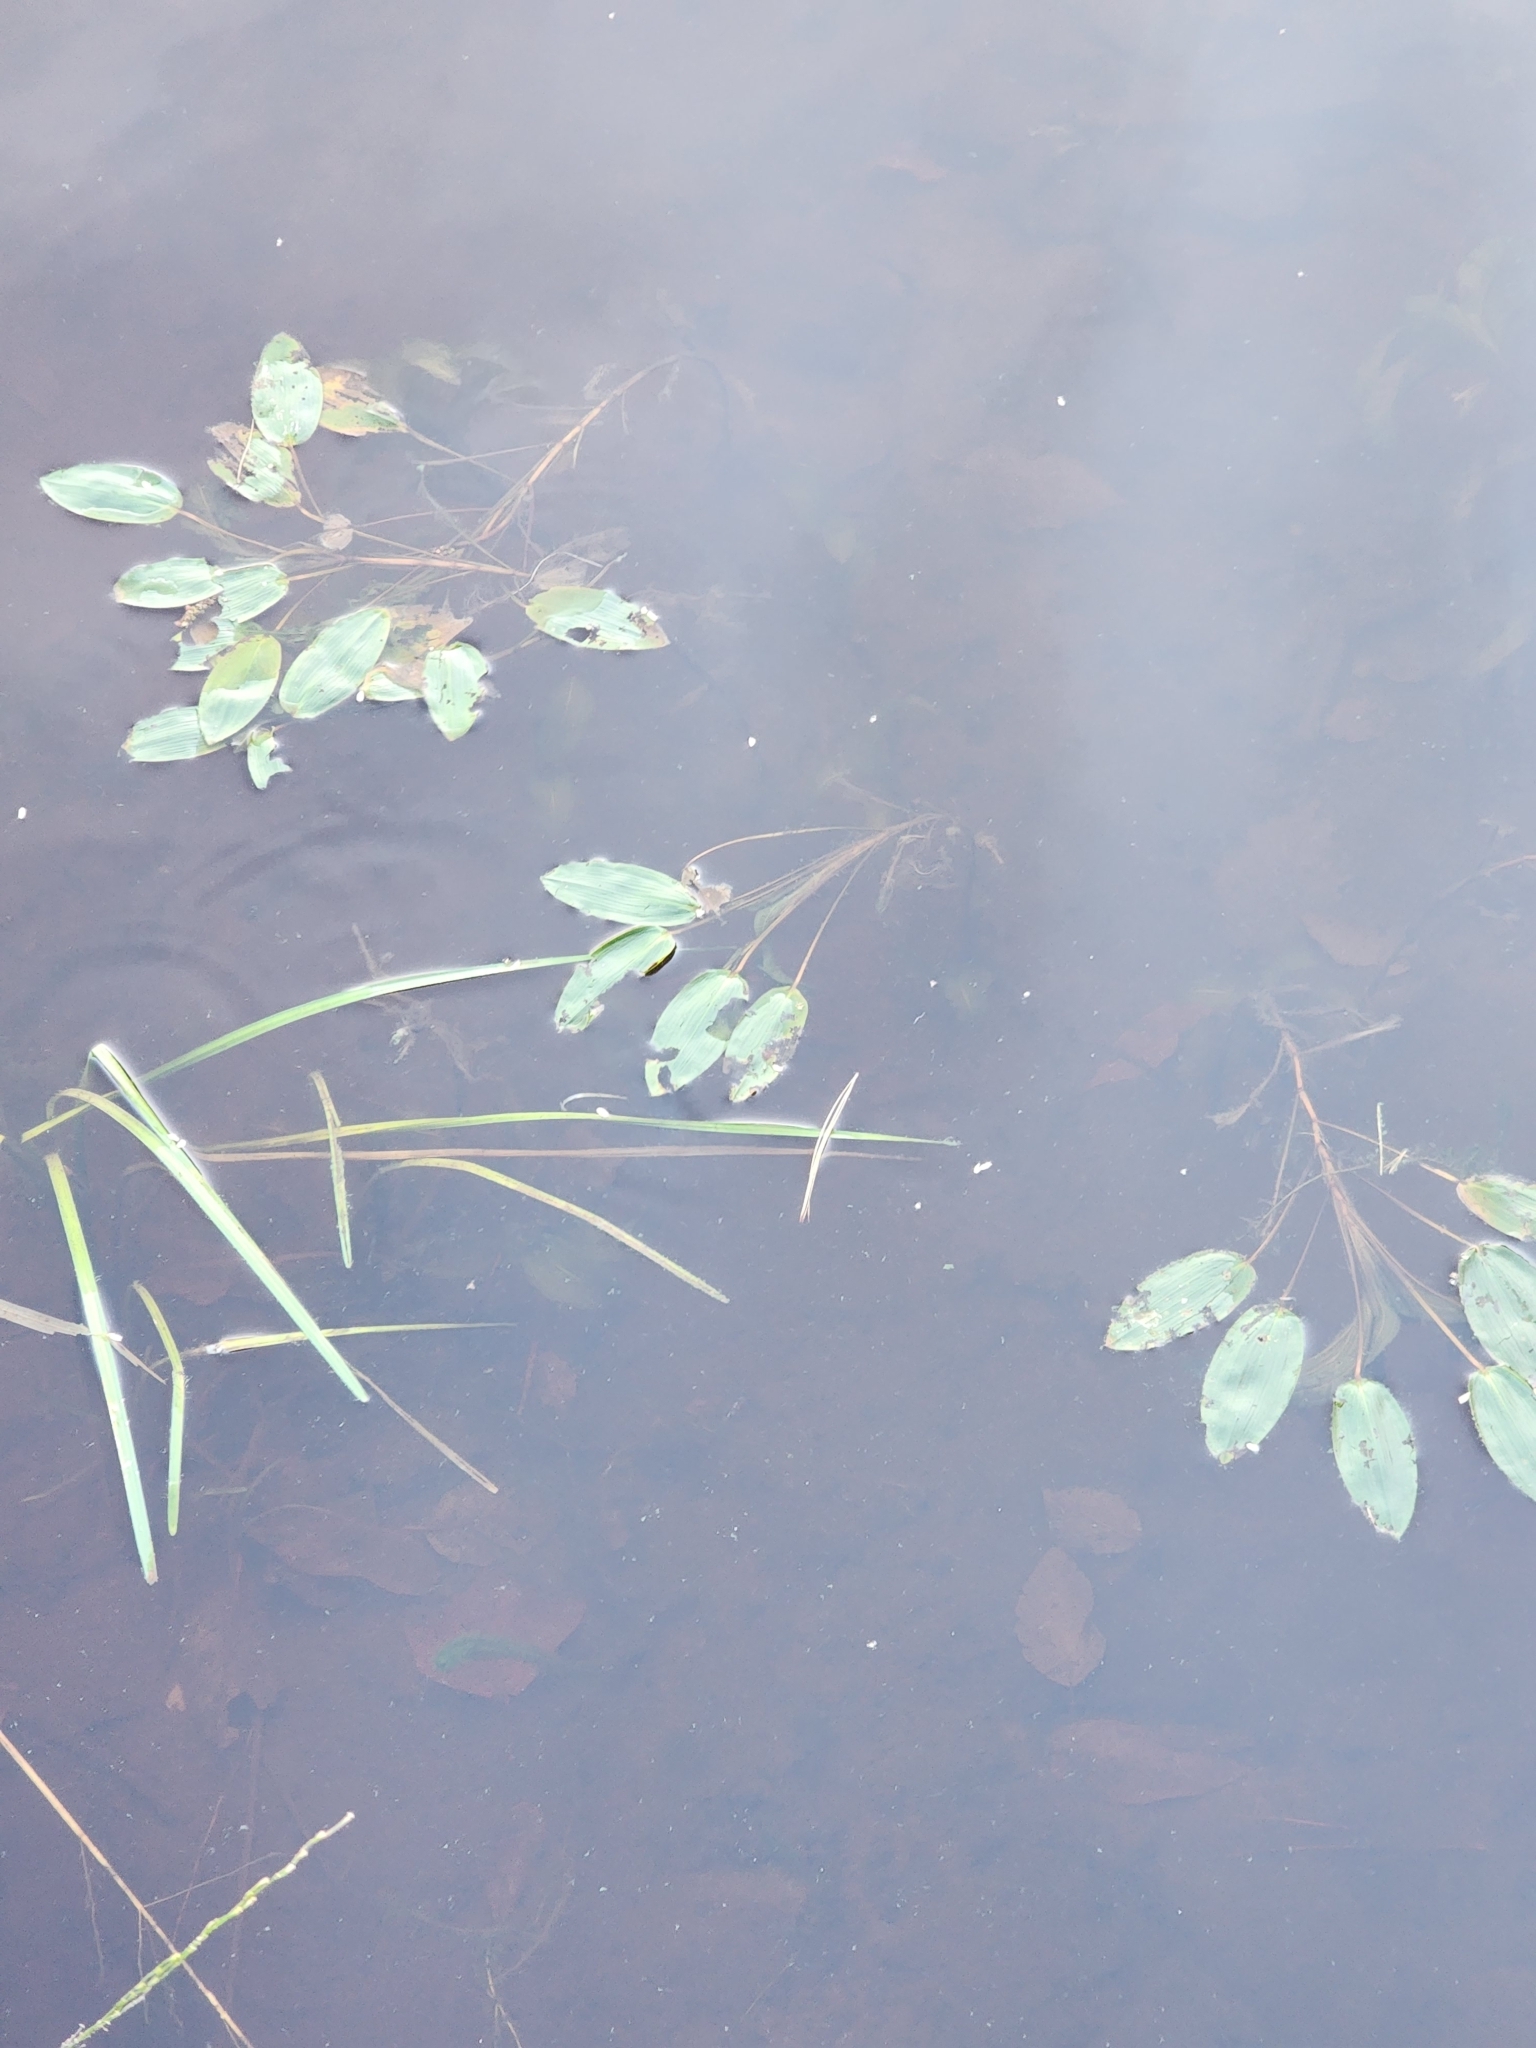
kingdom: Plantae
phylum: Tracheophyta
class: Liliopsida
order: Alismatales
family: Potamogetonaceae
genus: Potamogeton
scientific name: Potamogeton amplifolius
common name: Broad-leaved pondweed
